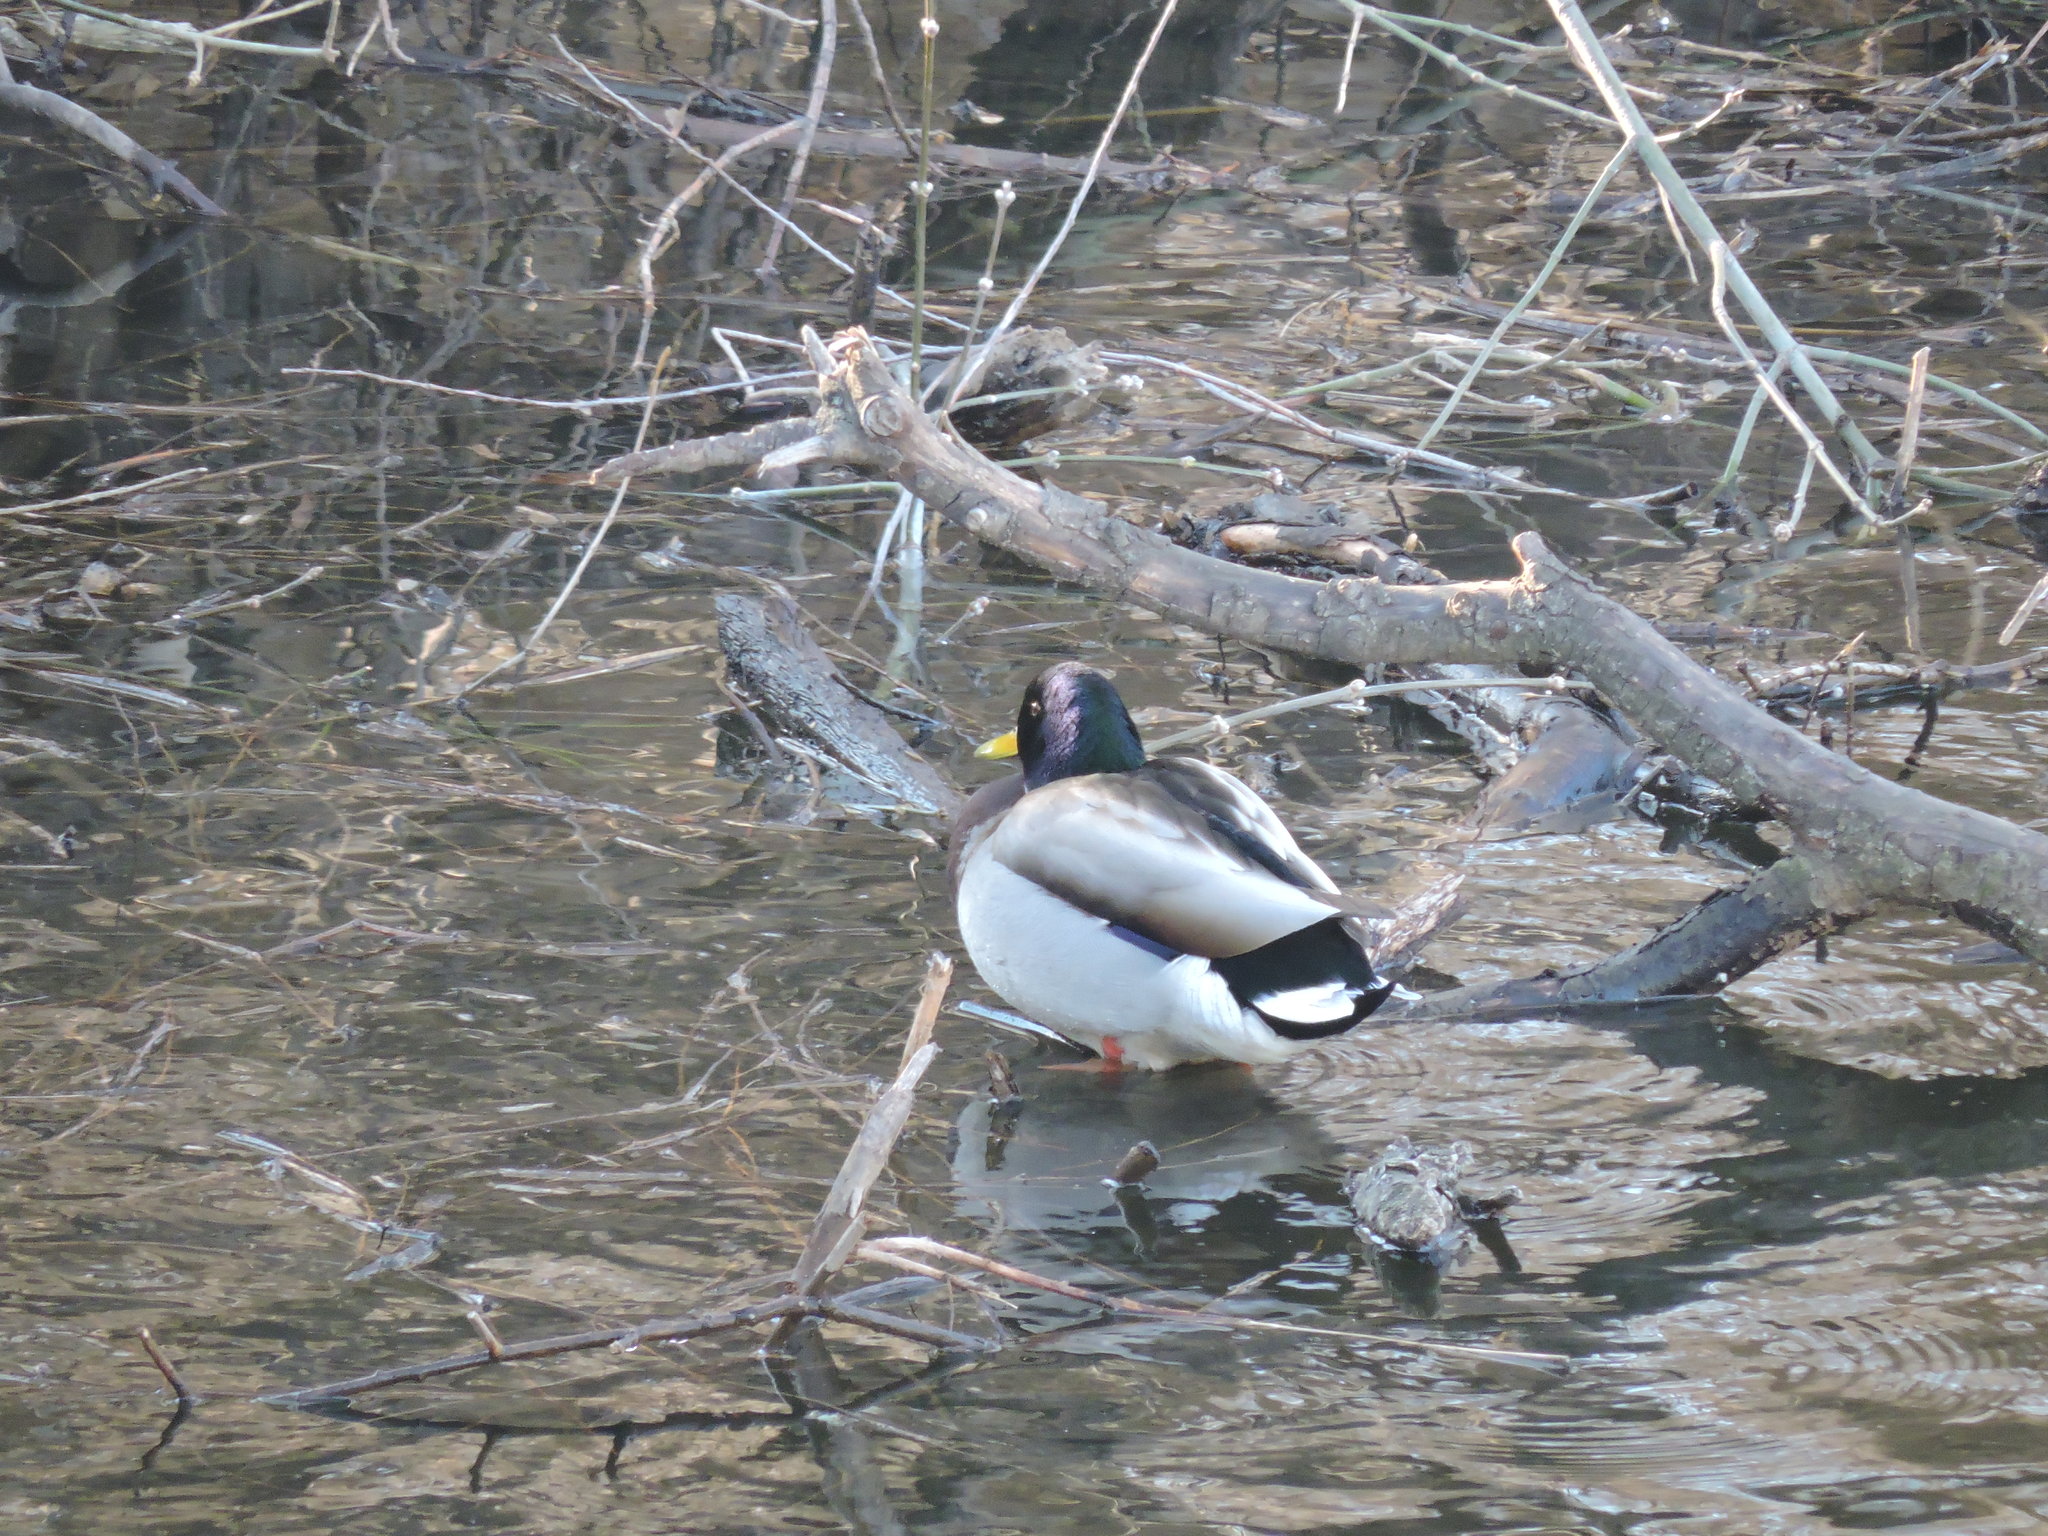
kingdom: Animalia
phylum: Chordata
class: Aves
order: Anseriformes
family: Anatidae
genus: Anas
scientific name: Anas platyrhynchos
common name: Mallard
